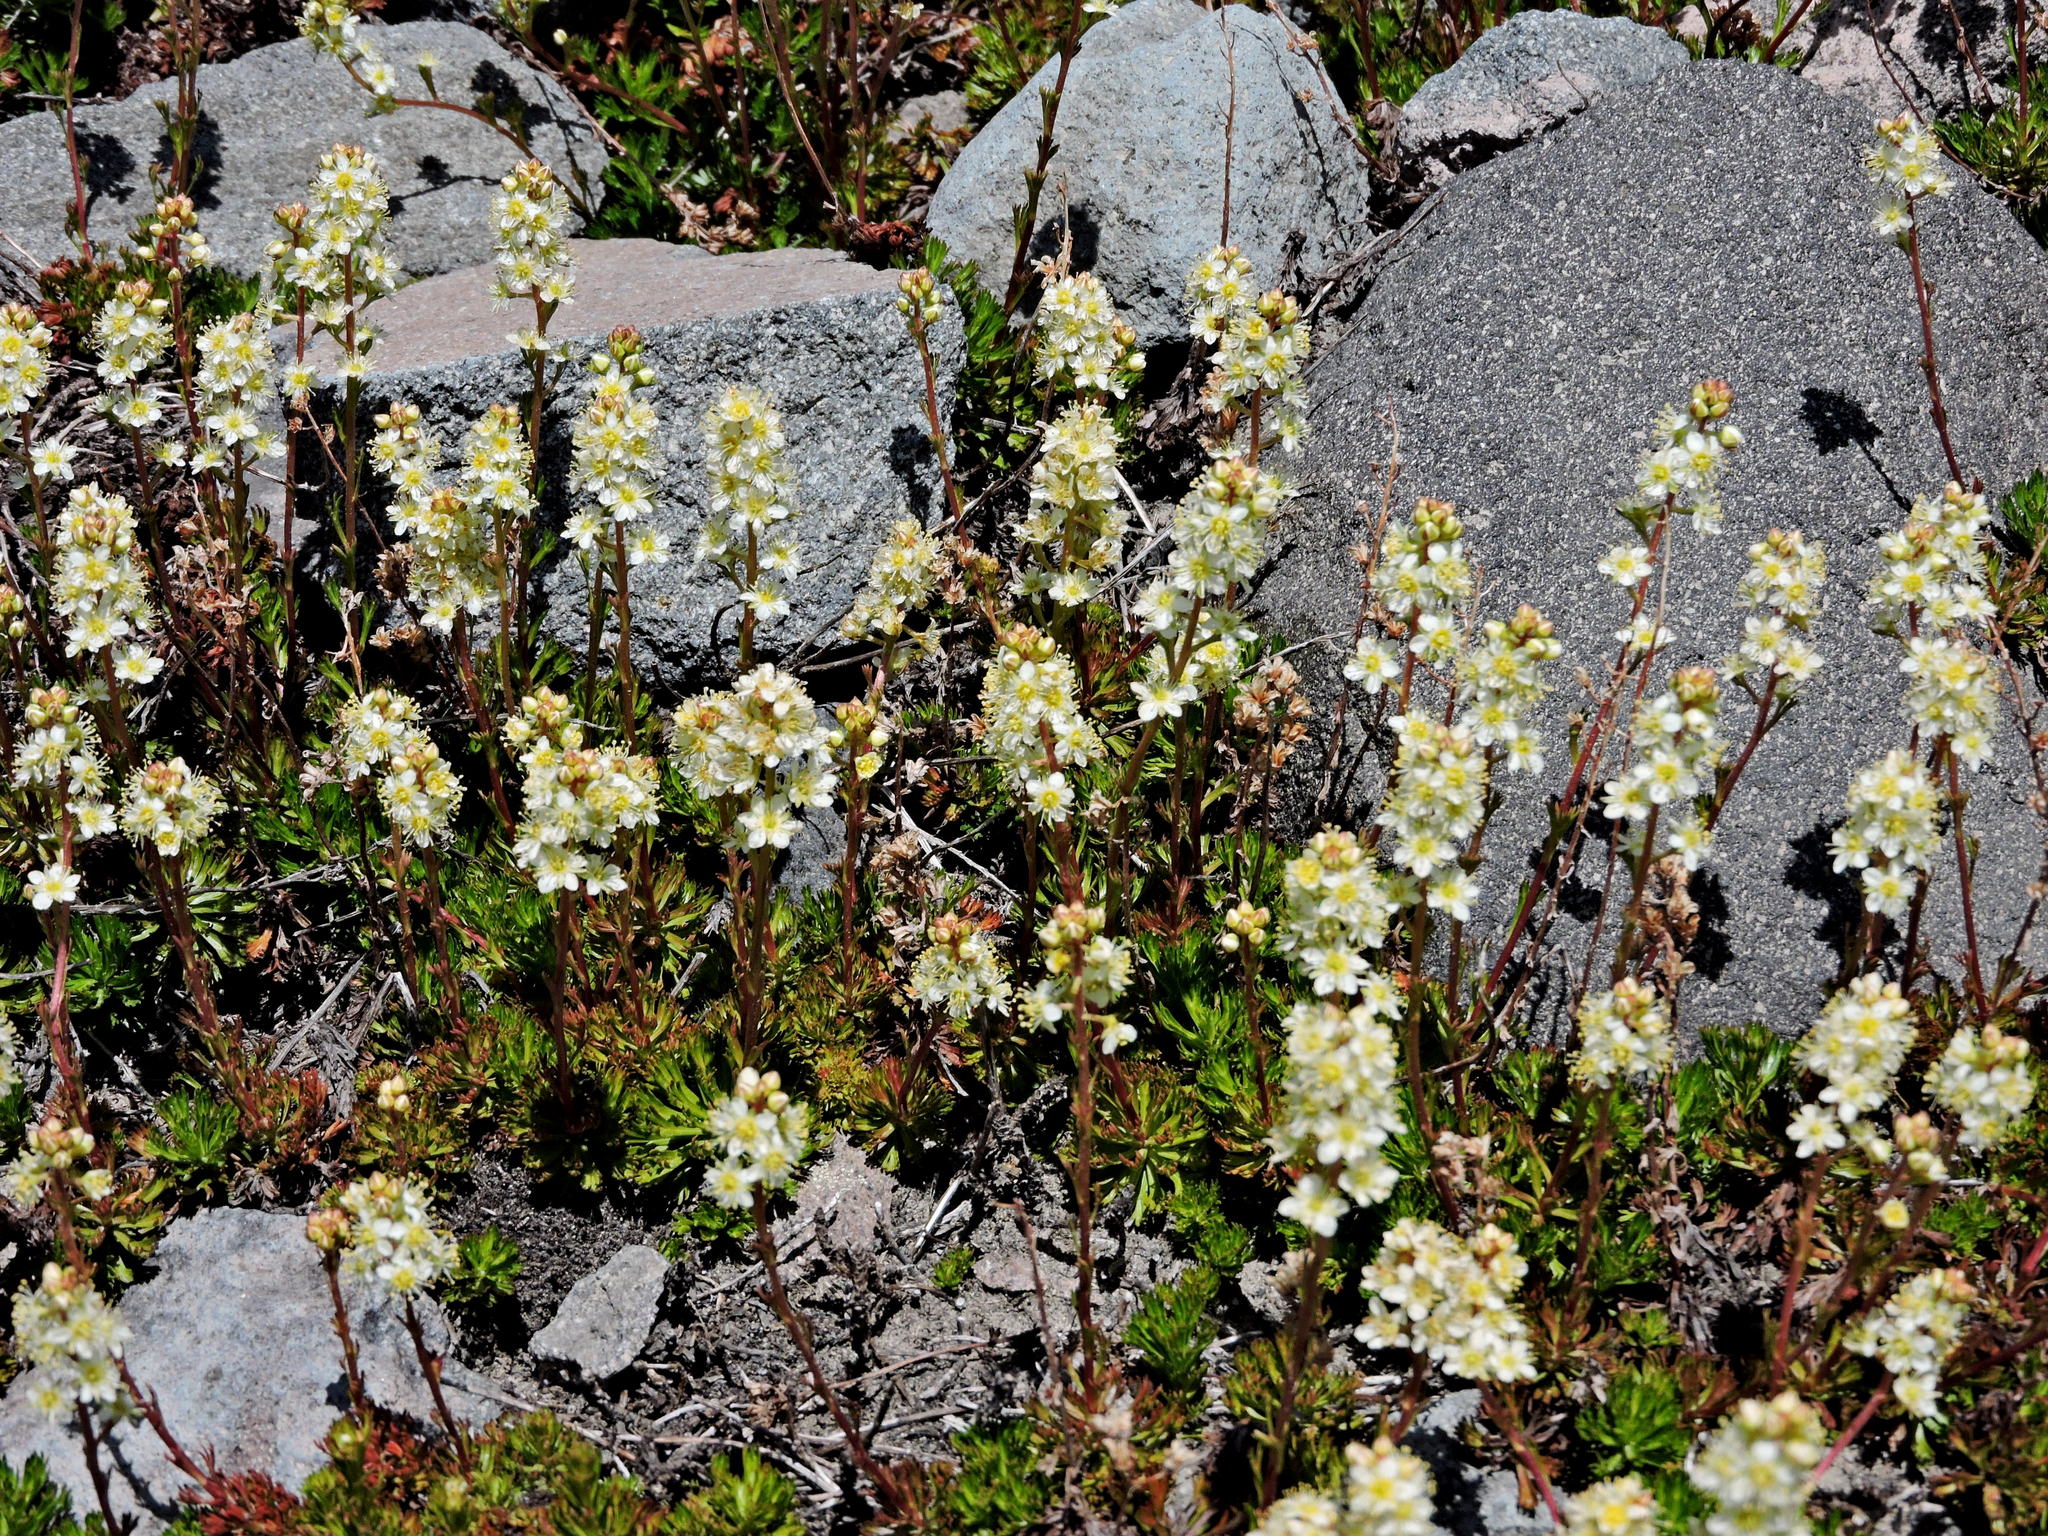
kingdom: Plantae
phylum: Tracheophyta
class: Magnoliopsida
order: Rosales
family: Rosaceae
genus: Luetkea
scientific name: Luetkea pectinata
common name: Partridgefoot
